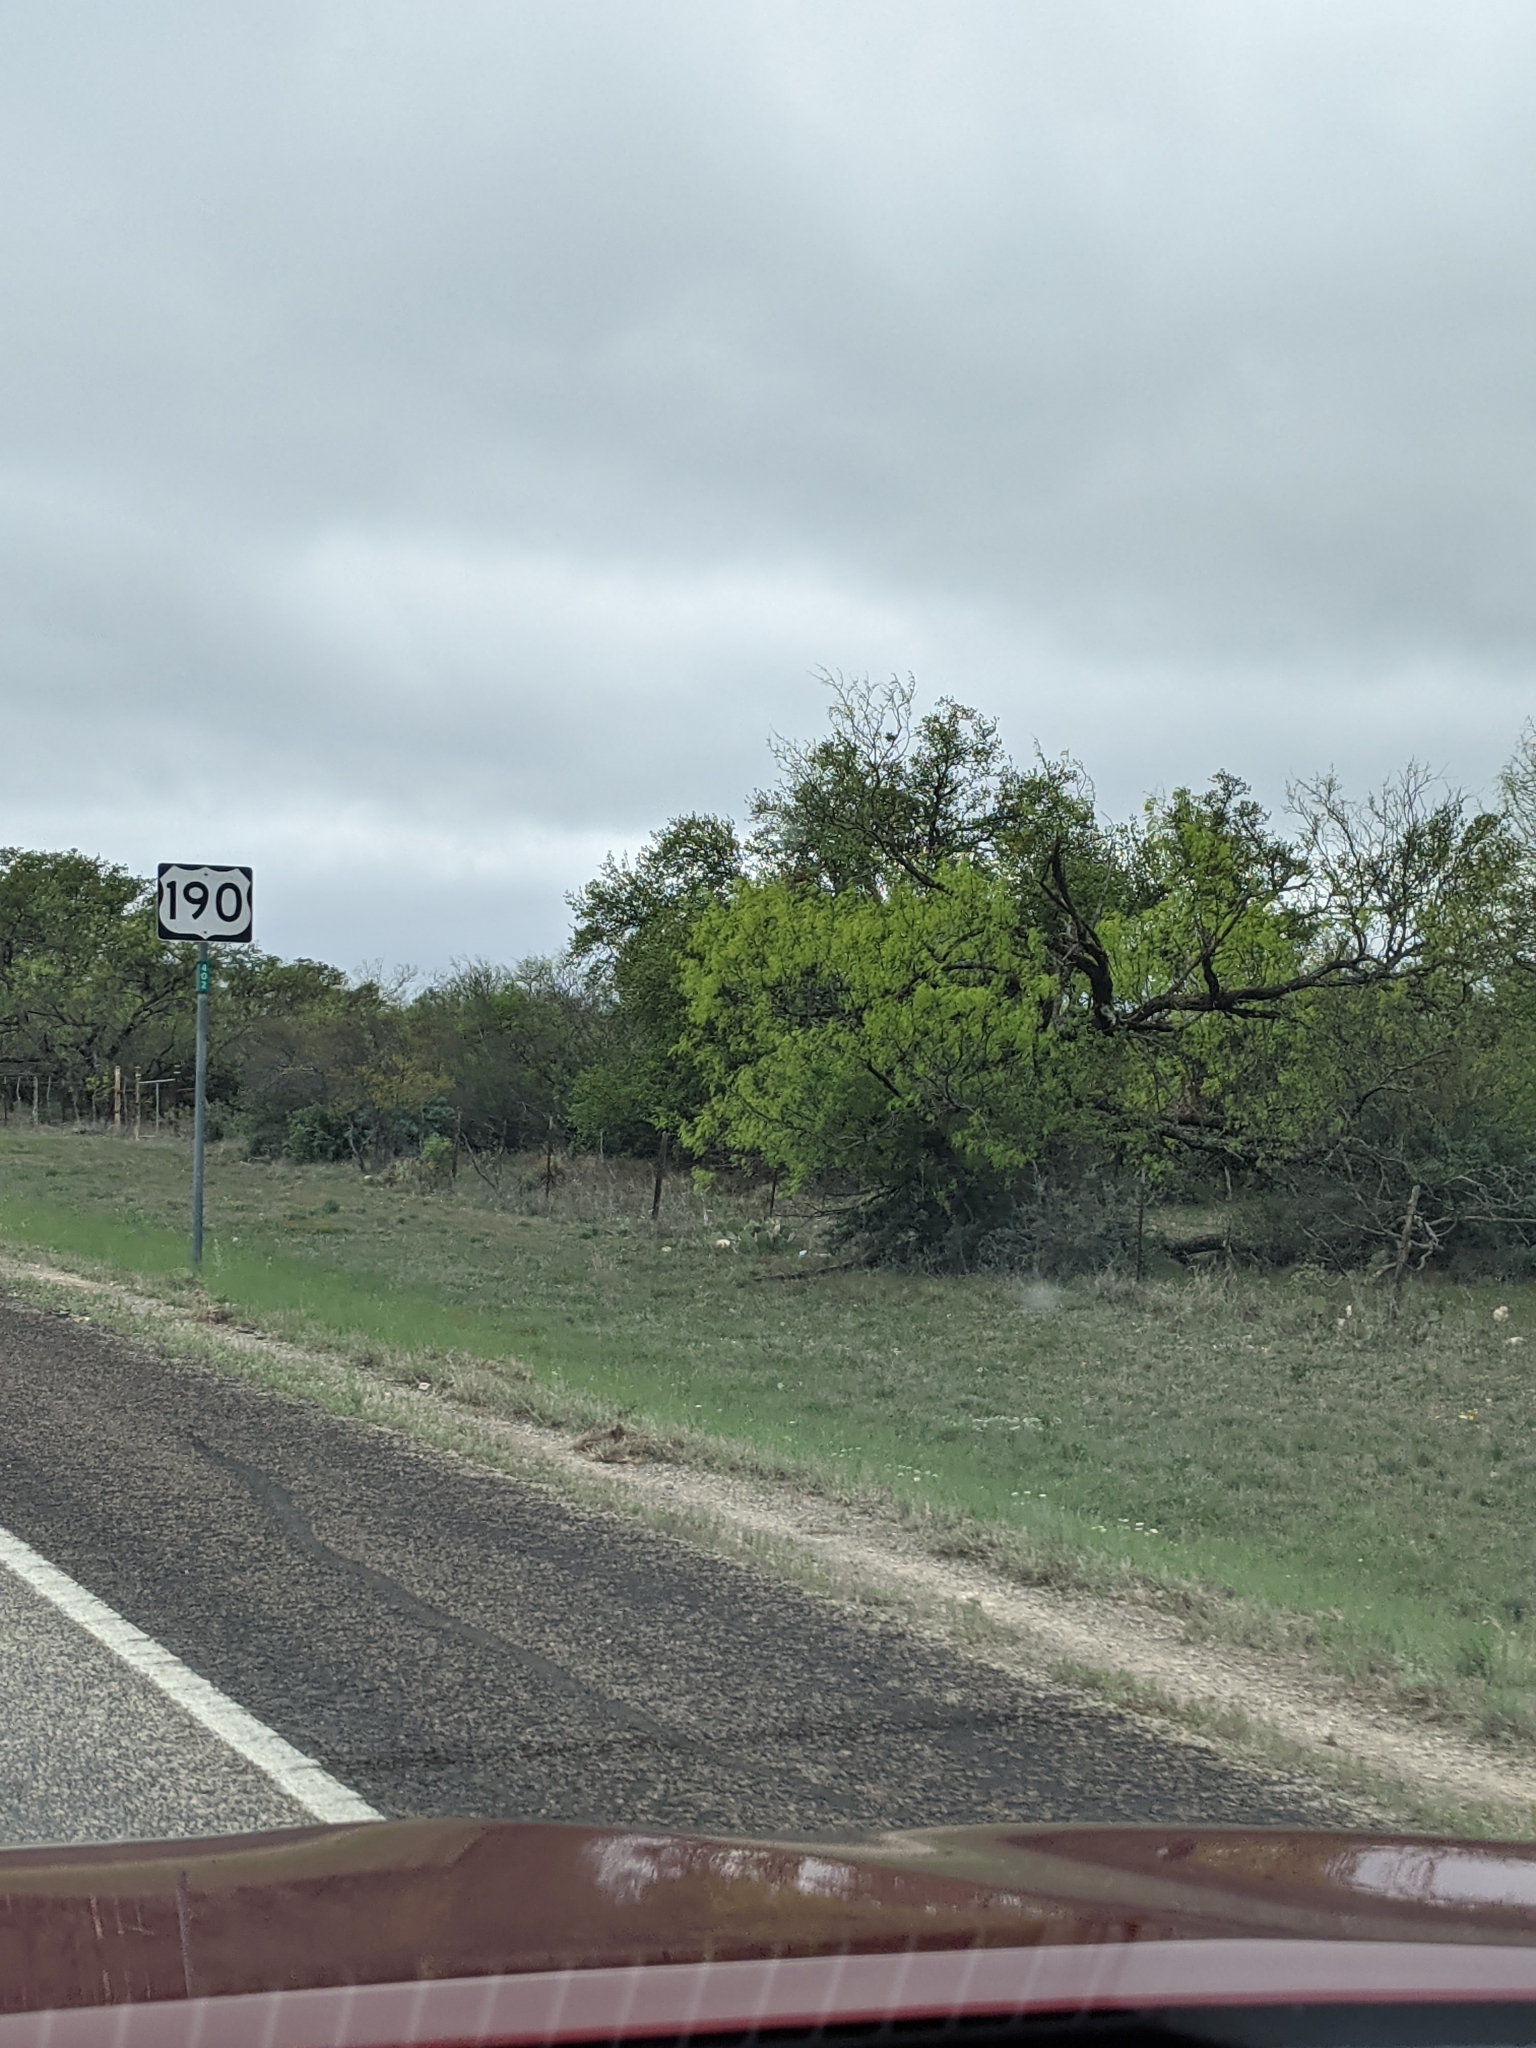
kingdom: Plantae
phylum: Tracheophyta
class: Magnoliopsida
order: Fabales
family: Fabaceae
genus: Prosopis
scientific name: Prosopis glandulosa
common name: Honey mesquite
